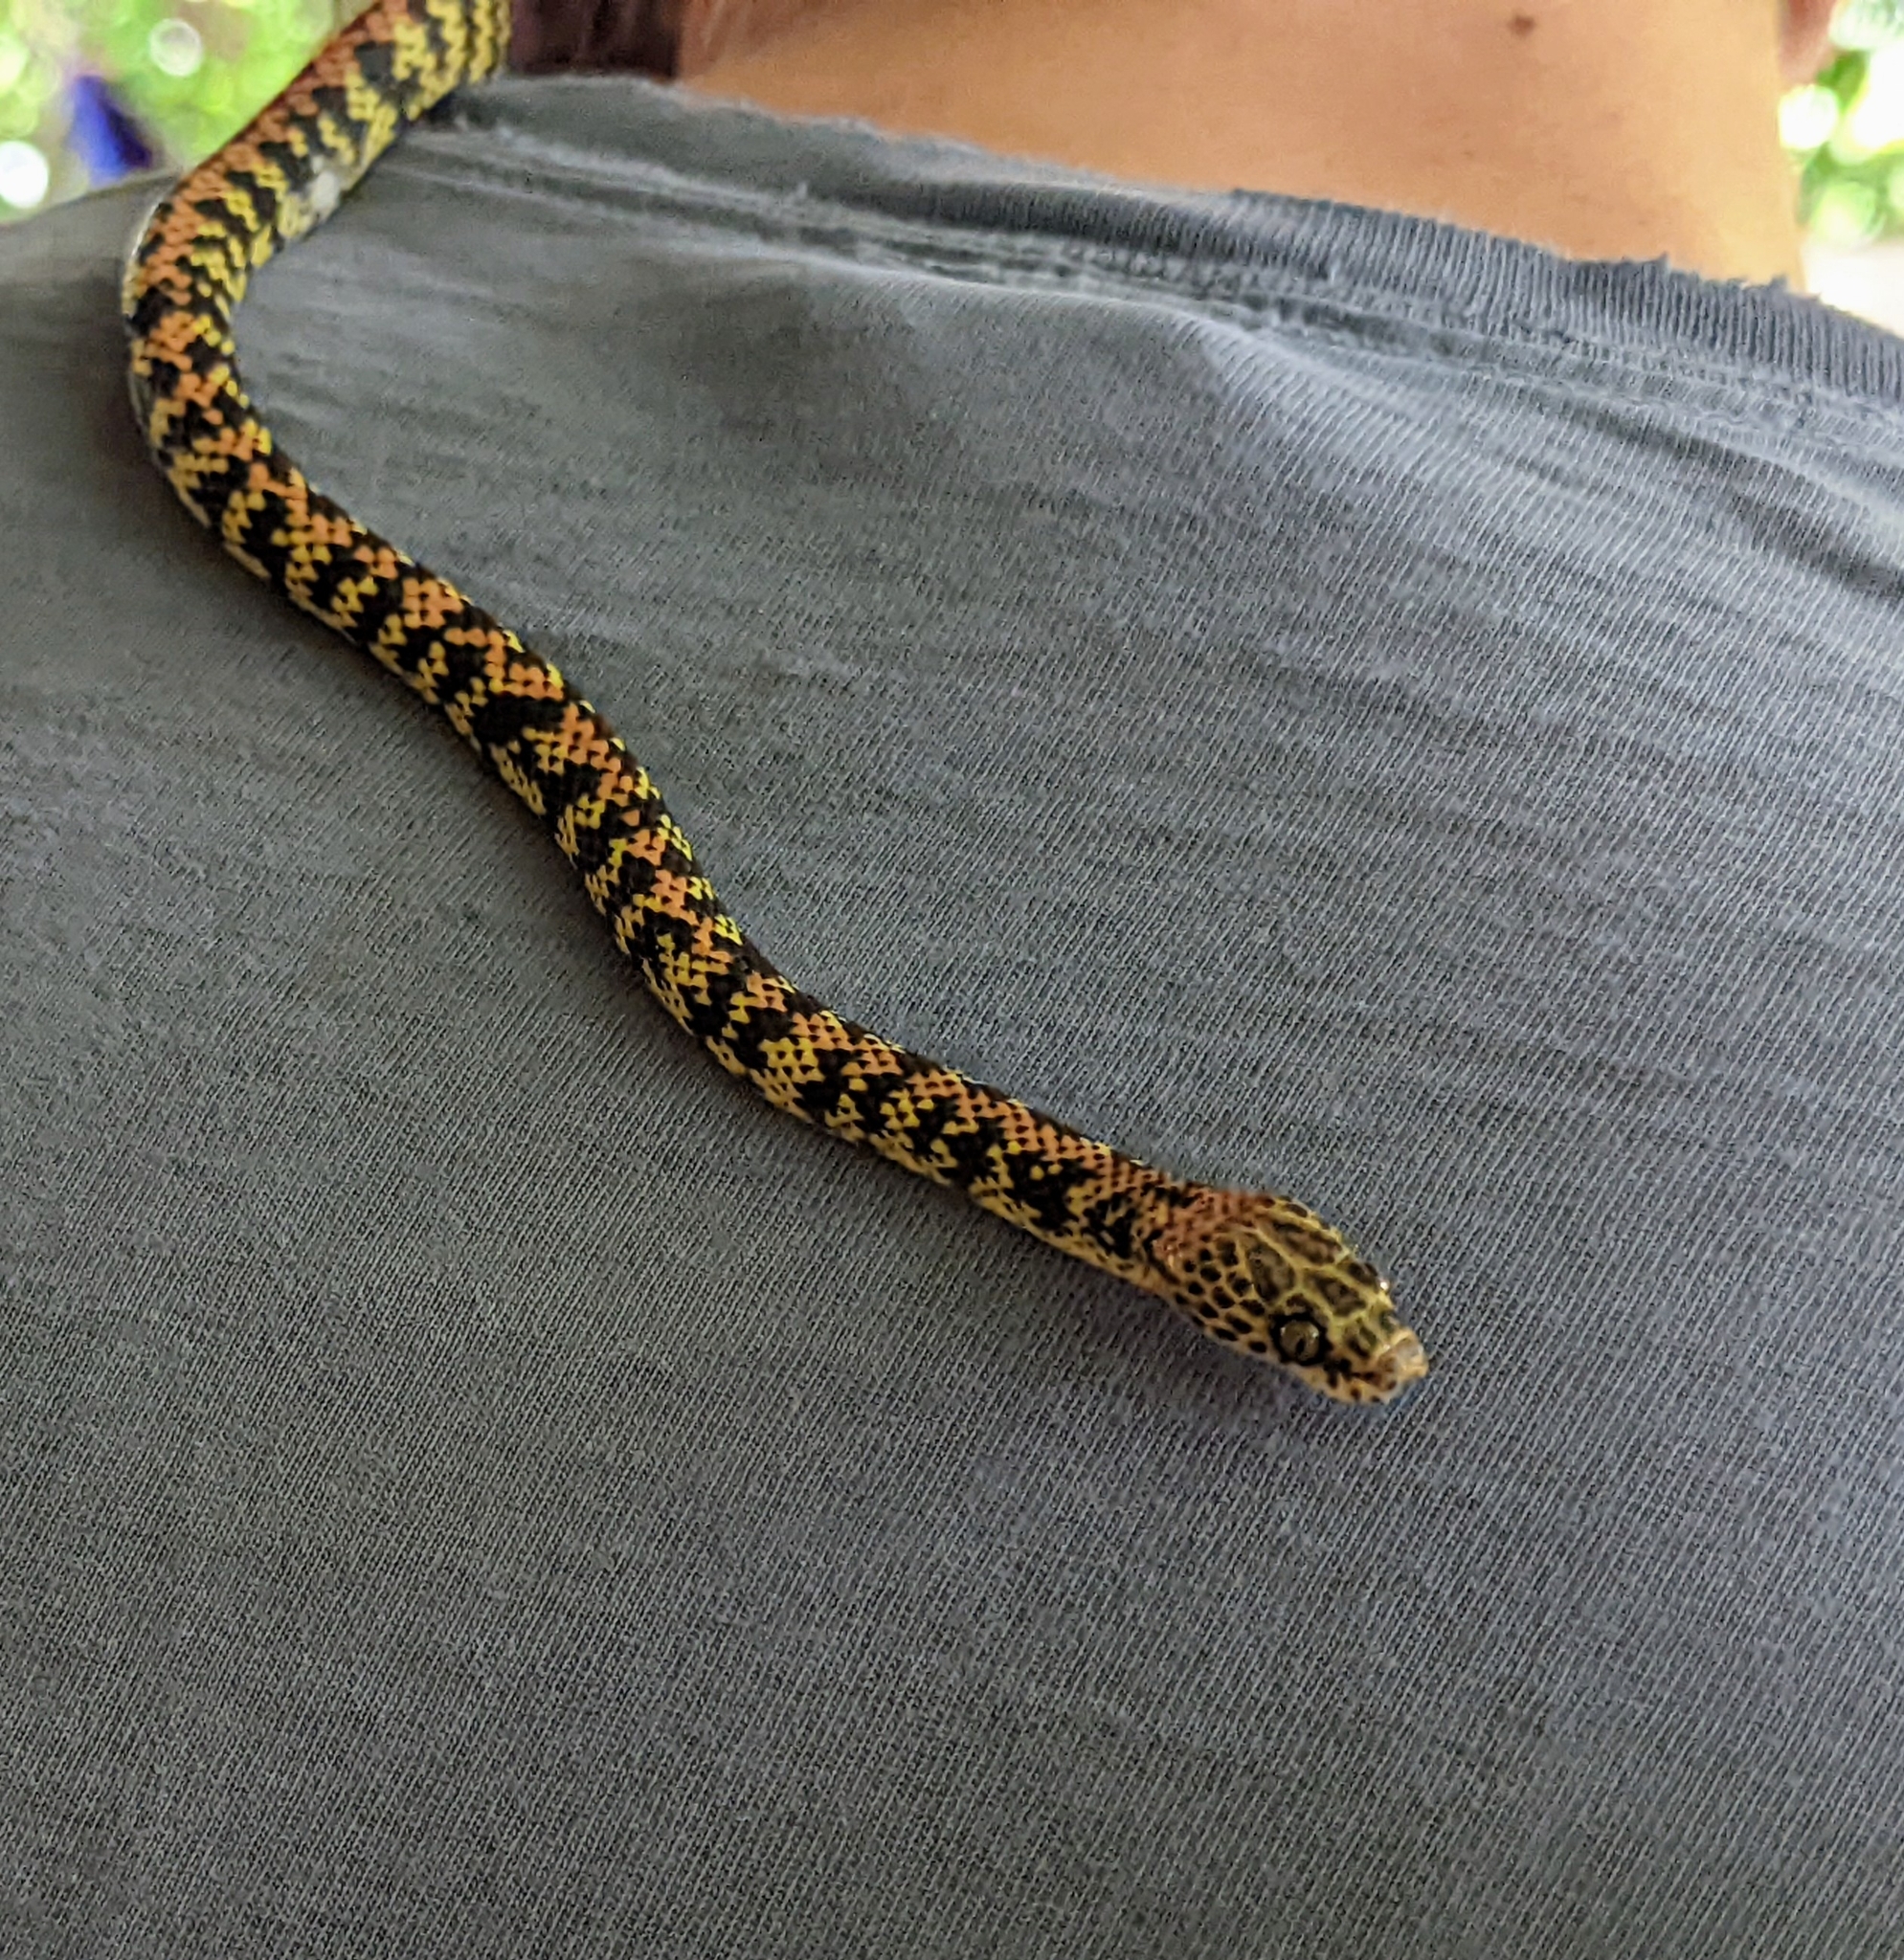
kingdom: Animalia
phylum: Chordata
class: Squamata
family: Colubridae
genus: Siphlophis
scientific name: Siphlophis cervinus
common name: Panama spotted night snake
